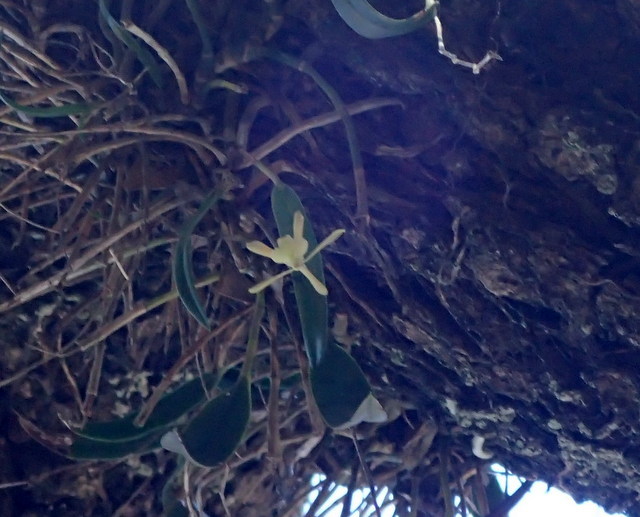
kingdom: Plantae
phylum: Tracheophyta
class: Liliopsida
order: Asparagales
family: Orchidaceae
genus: Epidendrum
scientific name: Epidendrum conopseum
